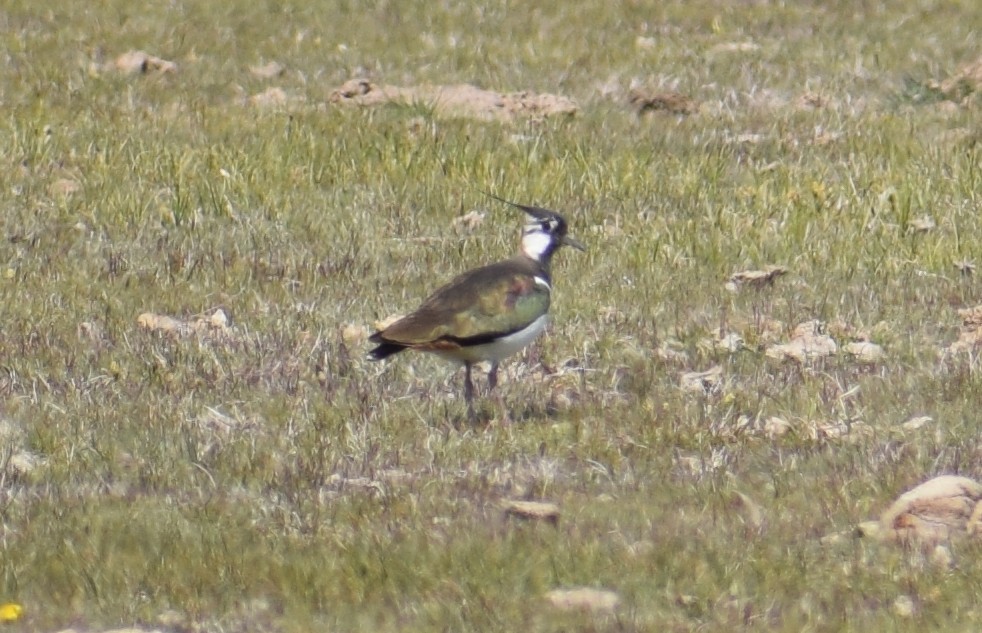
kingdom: Animalia
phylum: Chordata
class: Aves
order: Charadriiformes
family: Charadriidae
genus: Vanellus
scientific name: Vanellus vanellus
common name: Northern lapwing
